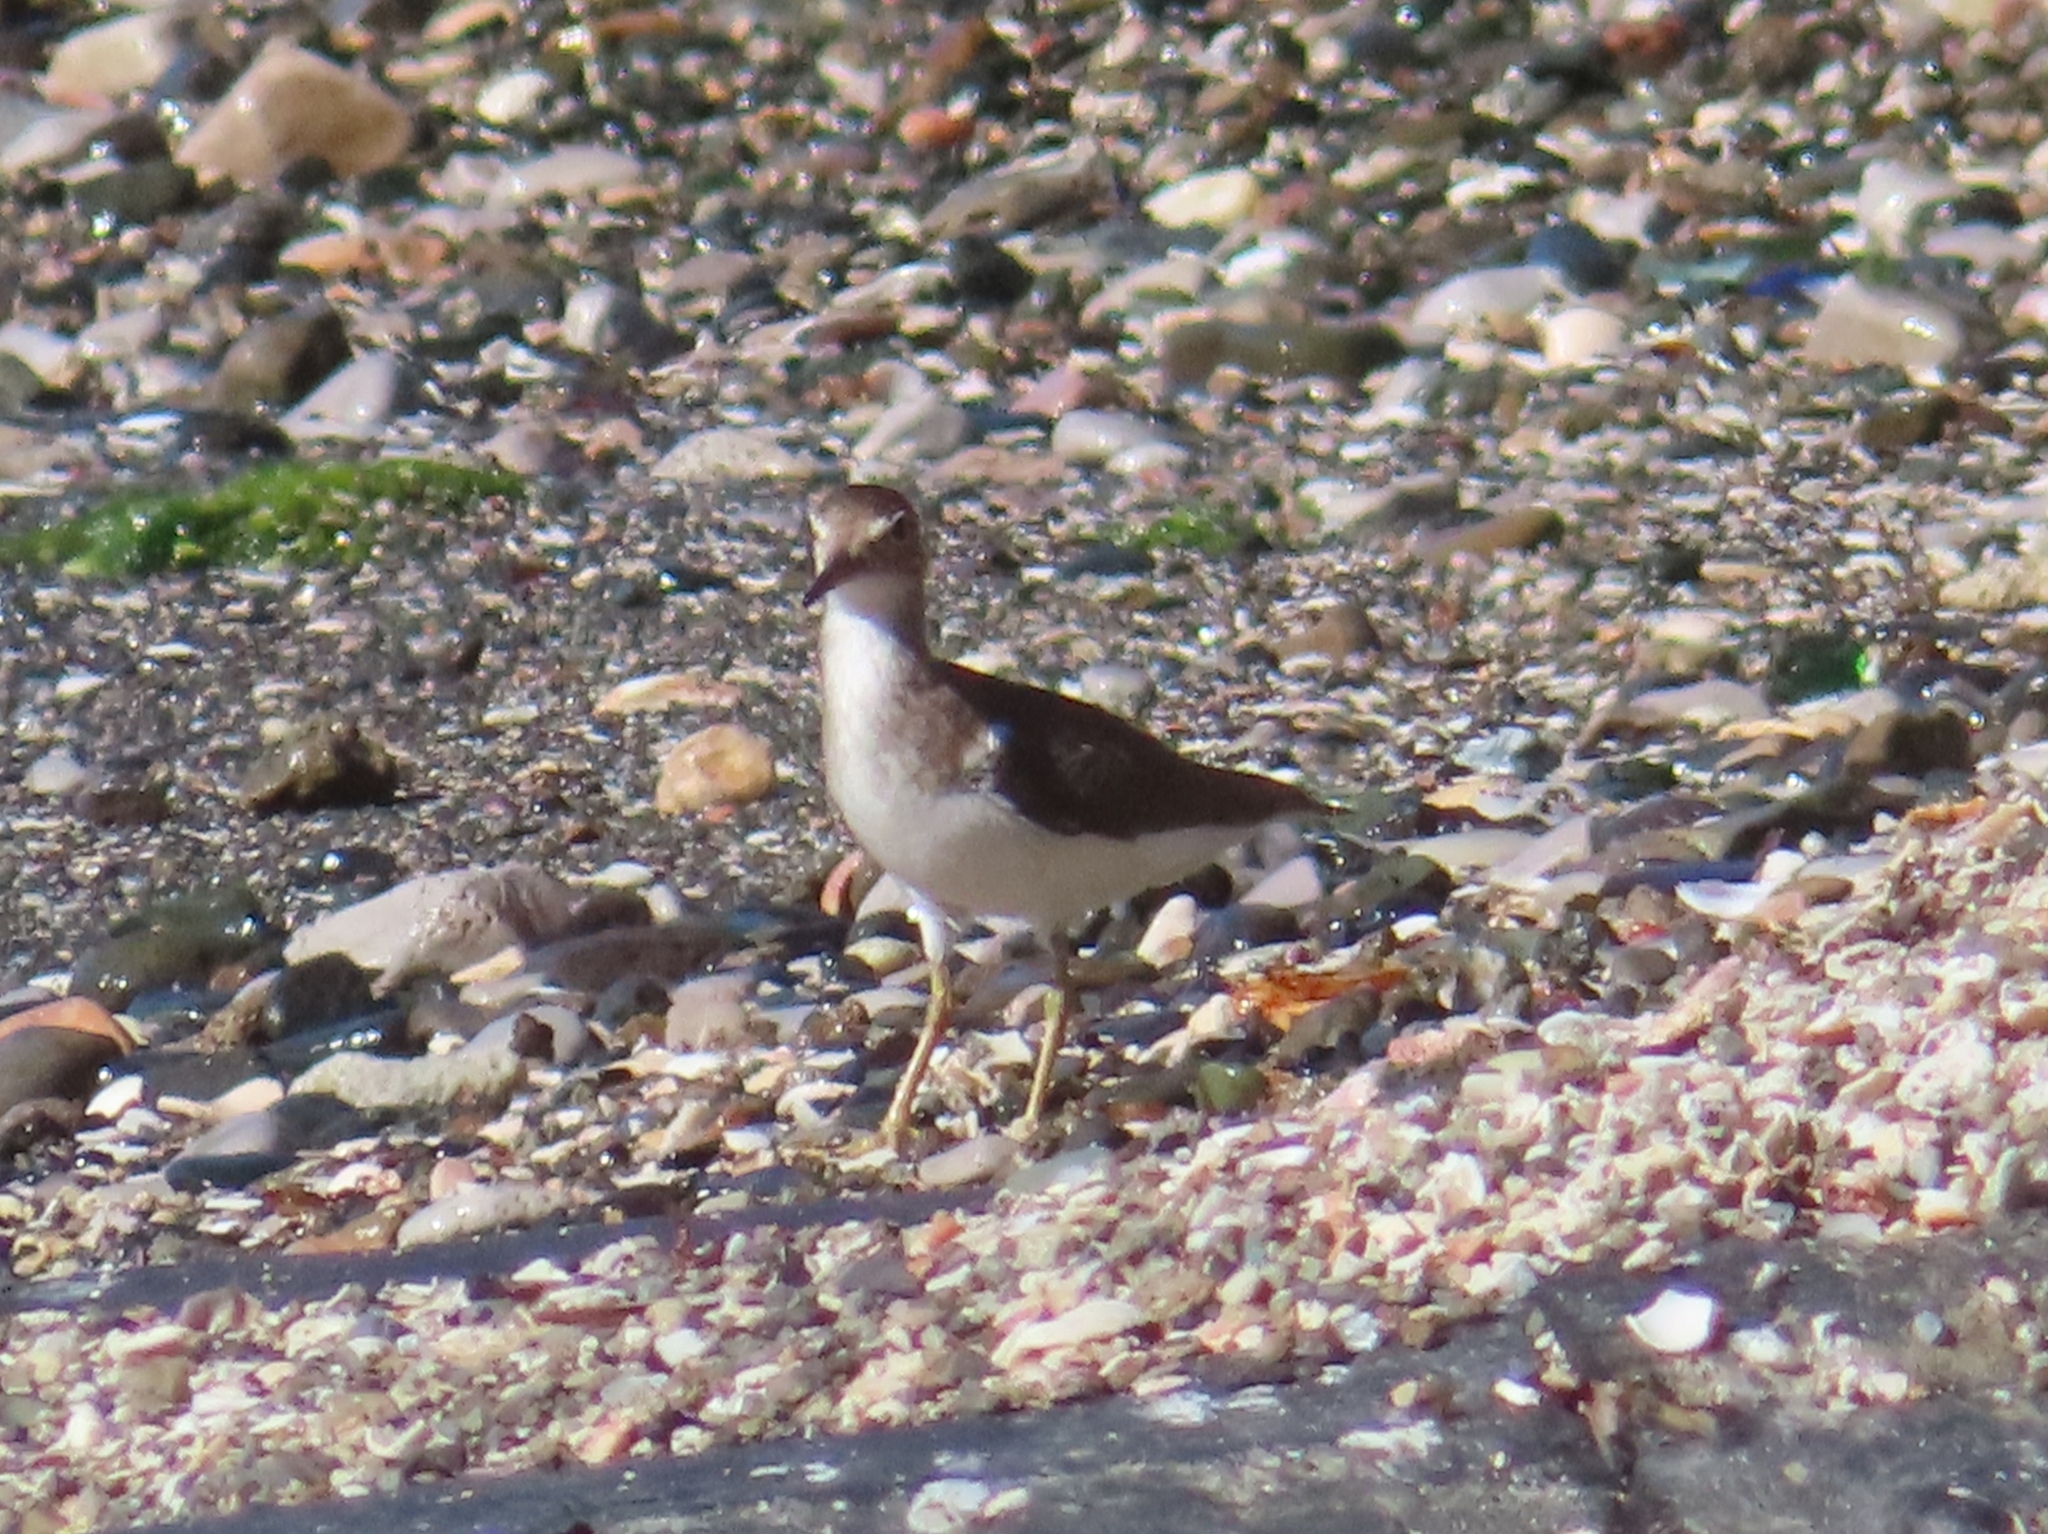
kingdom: Animalia
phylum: Chordata
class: Aves
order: Charadriiformes
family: Scolopacidae
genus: Actitis
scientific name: Actitis macularius
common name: Spotted sandpiper
